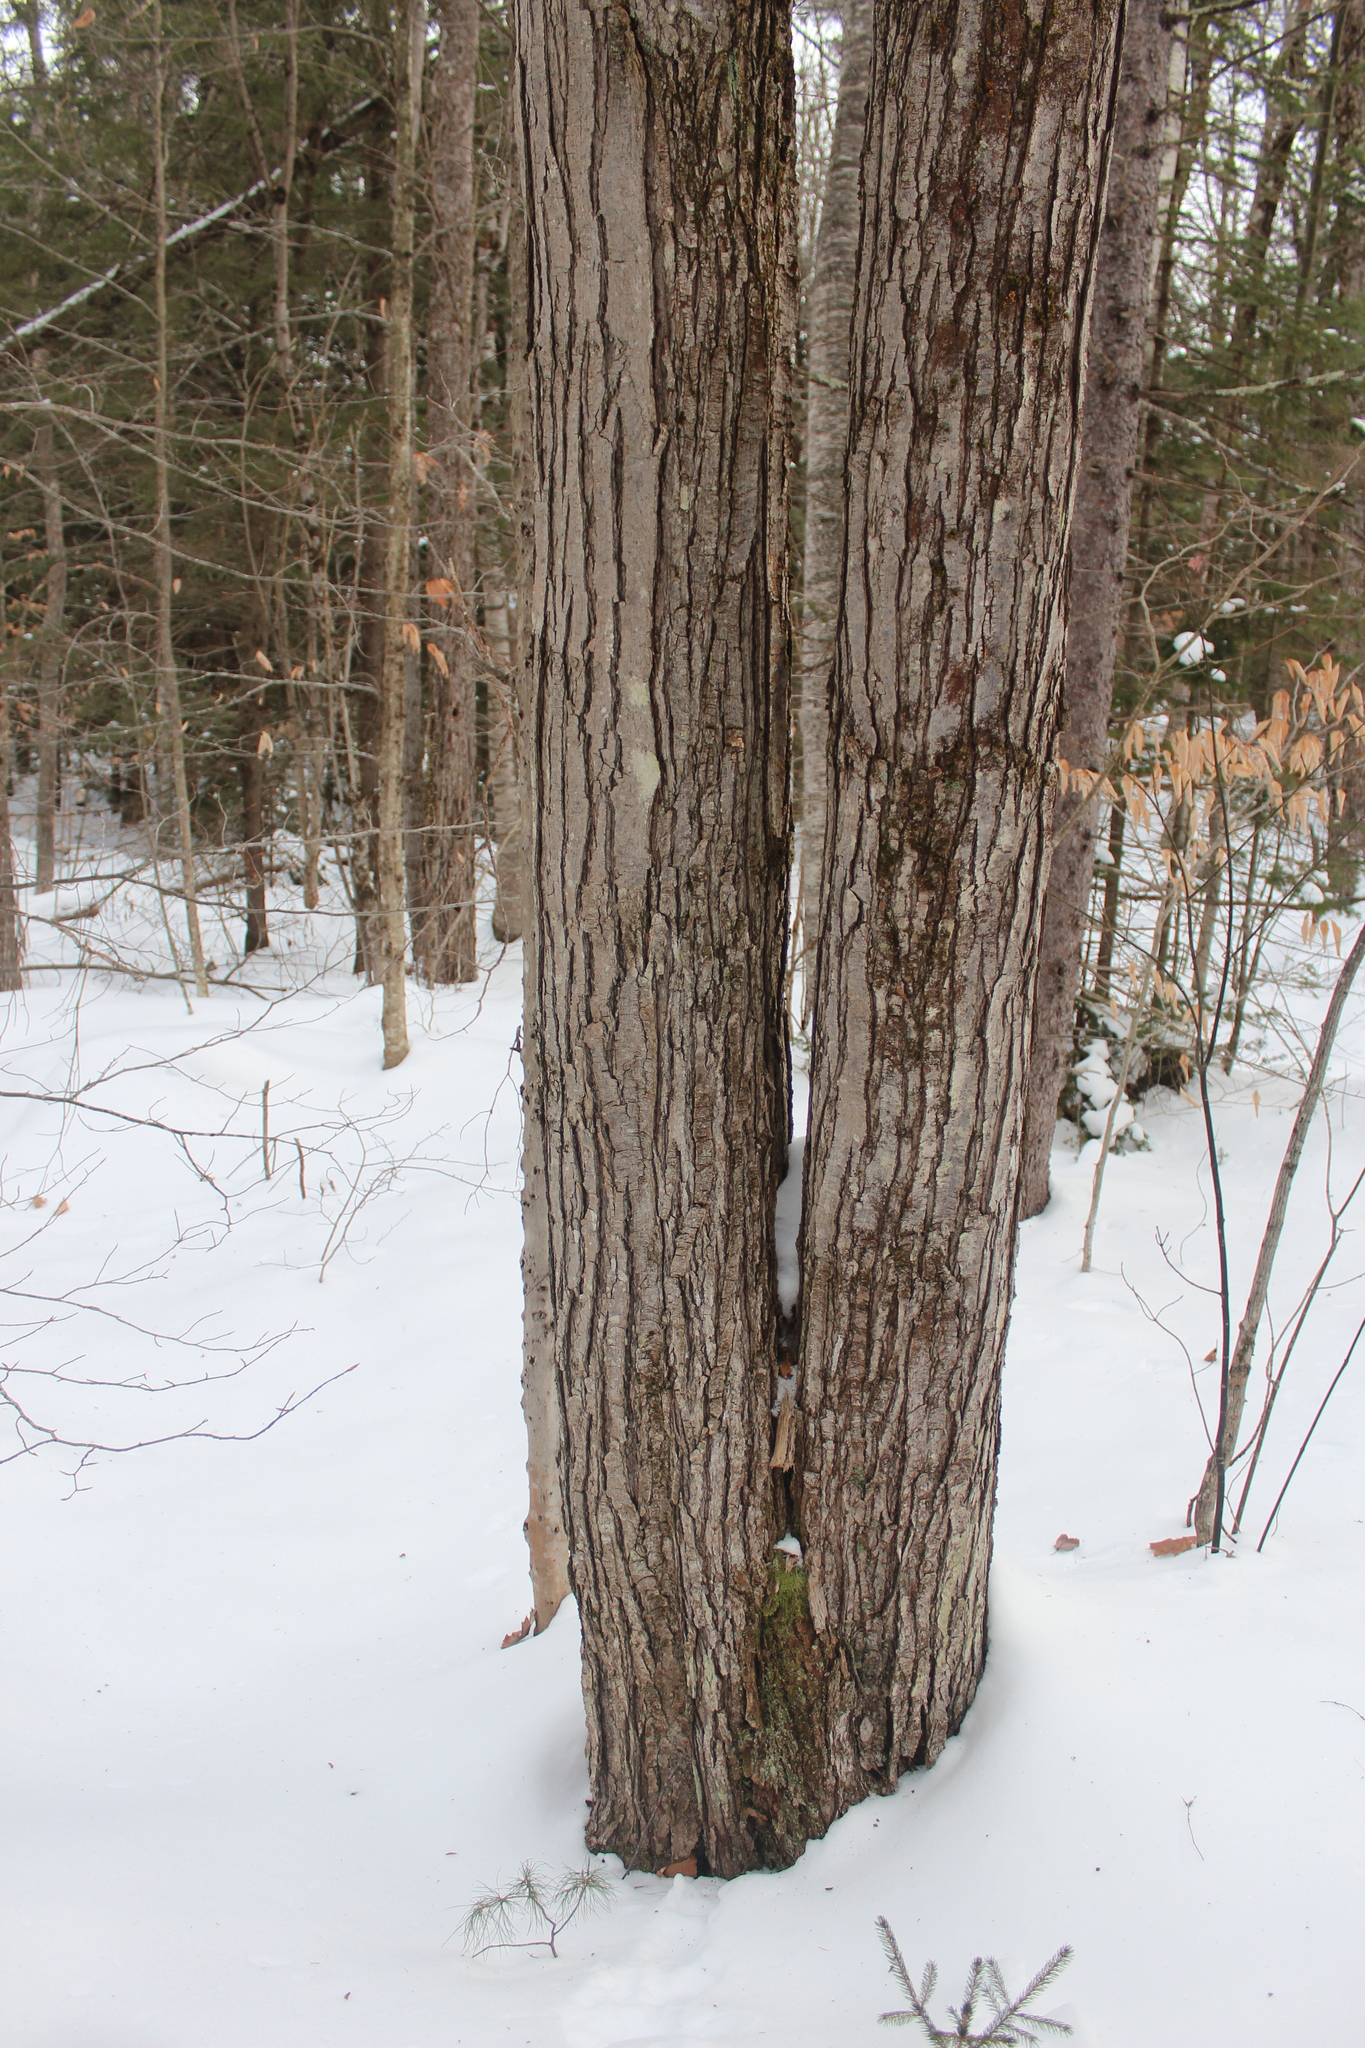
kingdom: Plantae
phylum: Tracheophyta
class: Magnoliopsida
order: Sapindales
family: Sapindaceae
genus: Acer
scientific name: Acer rubrum
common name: Red maple
